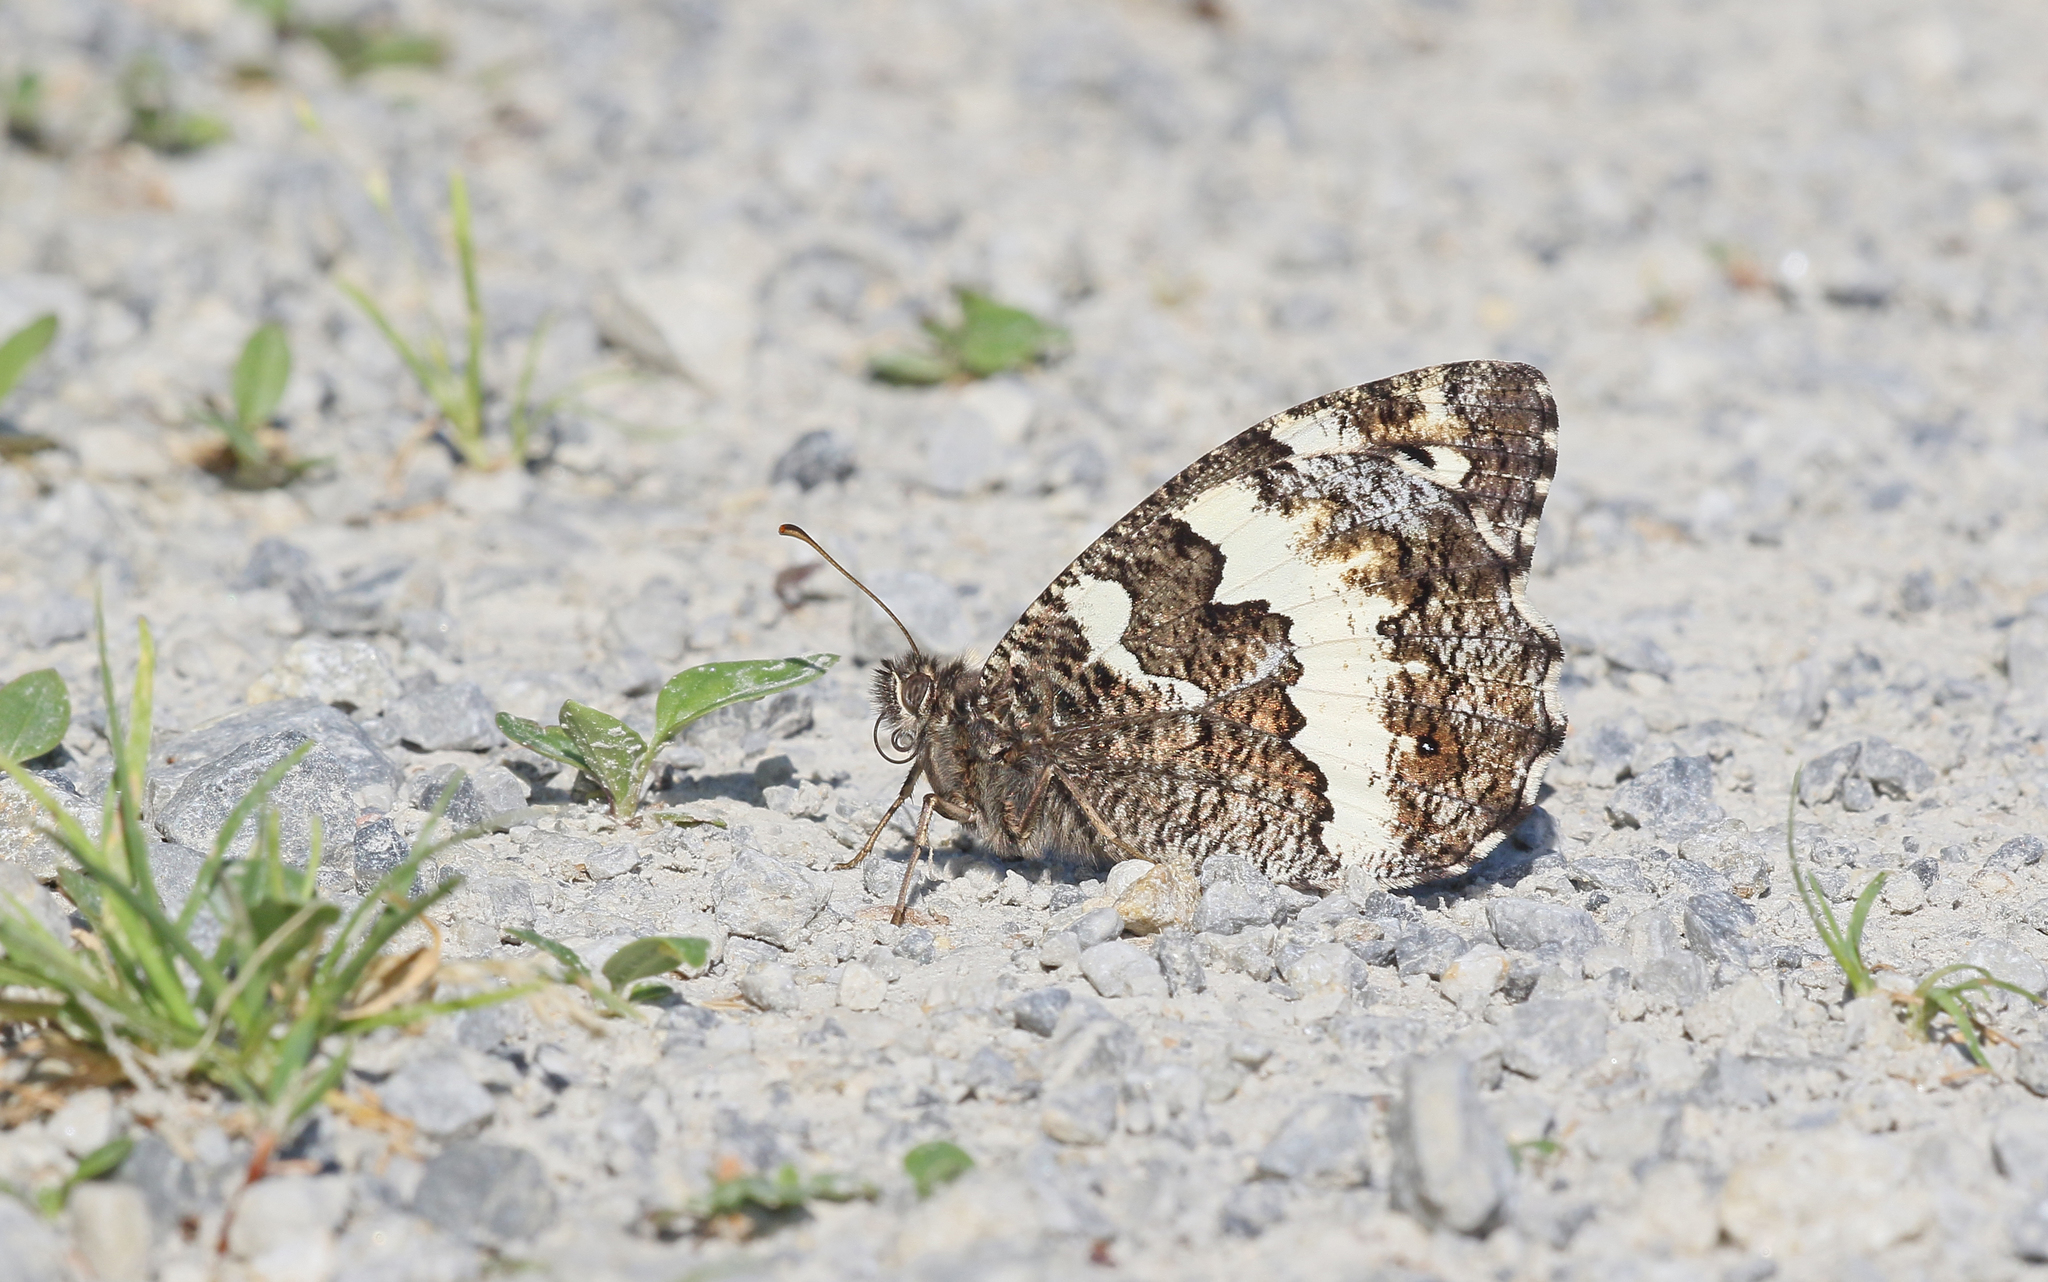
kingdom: Animalia
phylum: Arthropoda
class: Insecta
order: Lepidoptera
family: Lycaenidae
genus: Loweia
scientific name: Loweia tityrus
